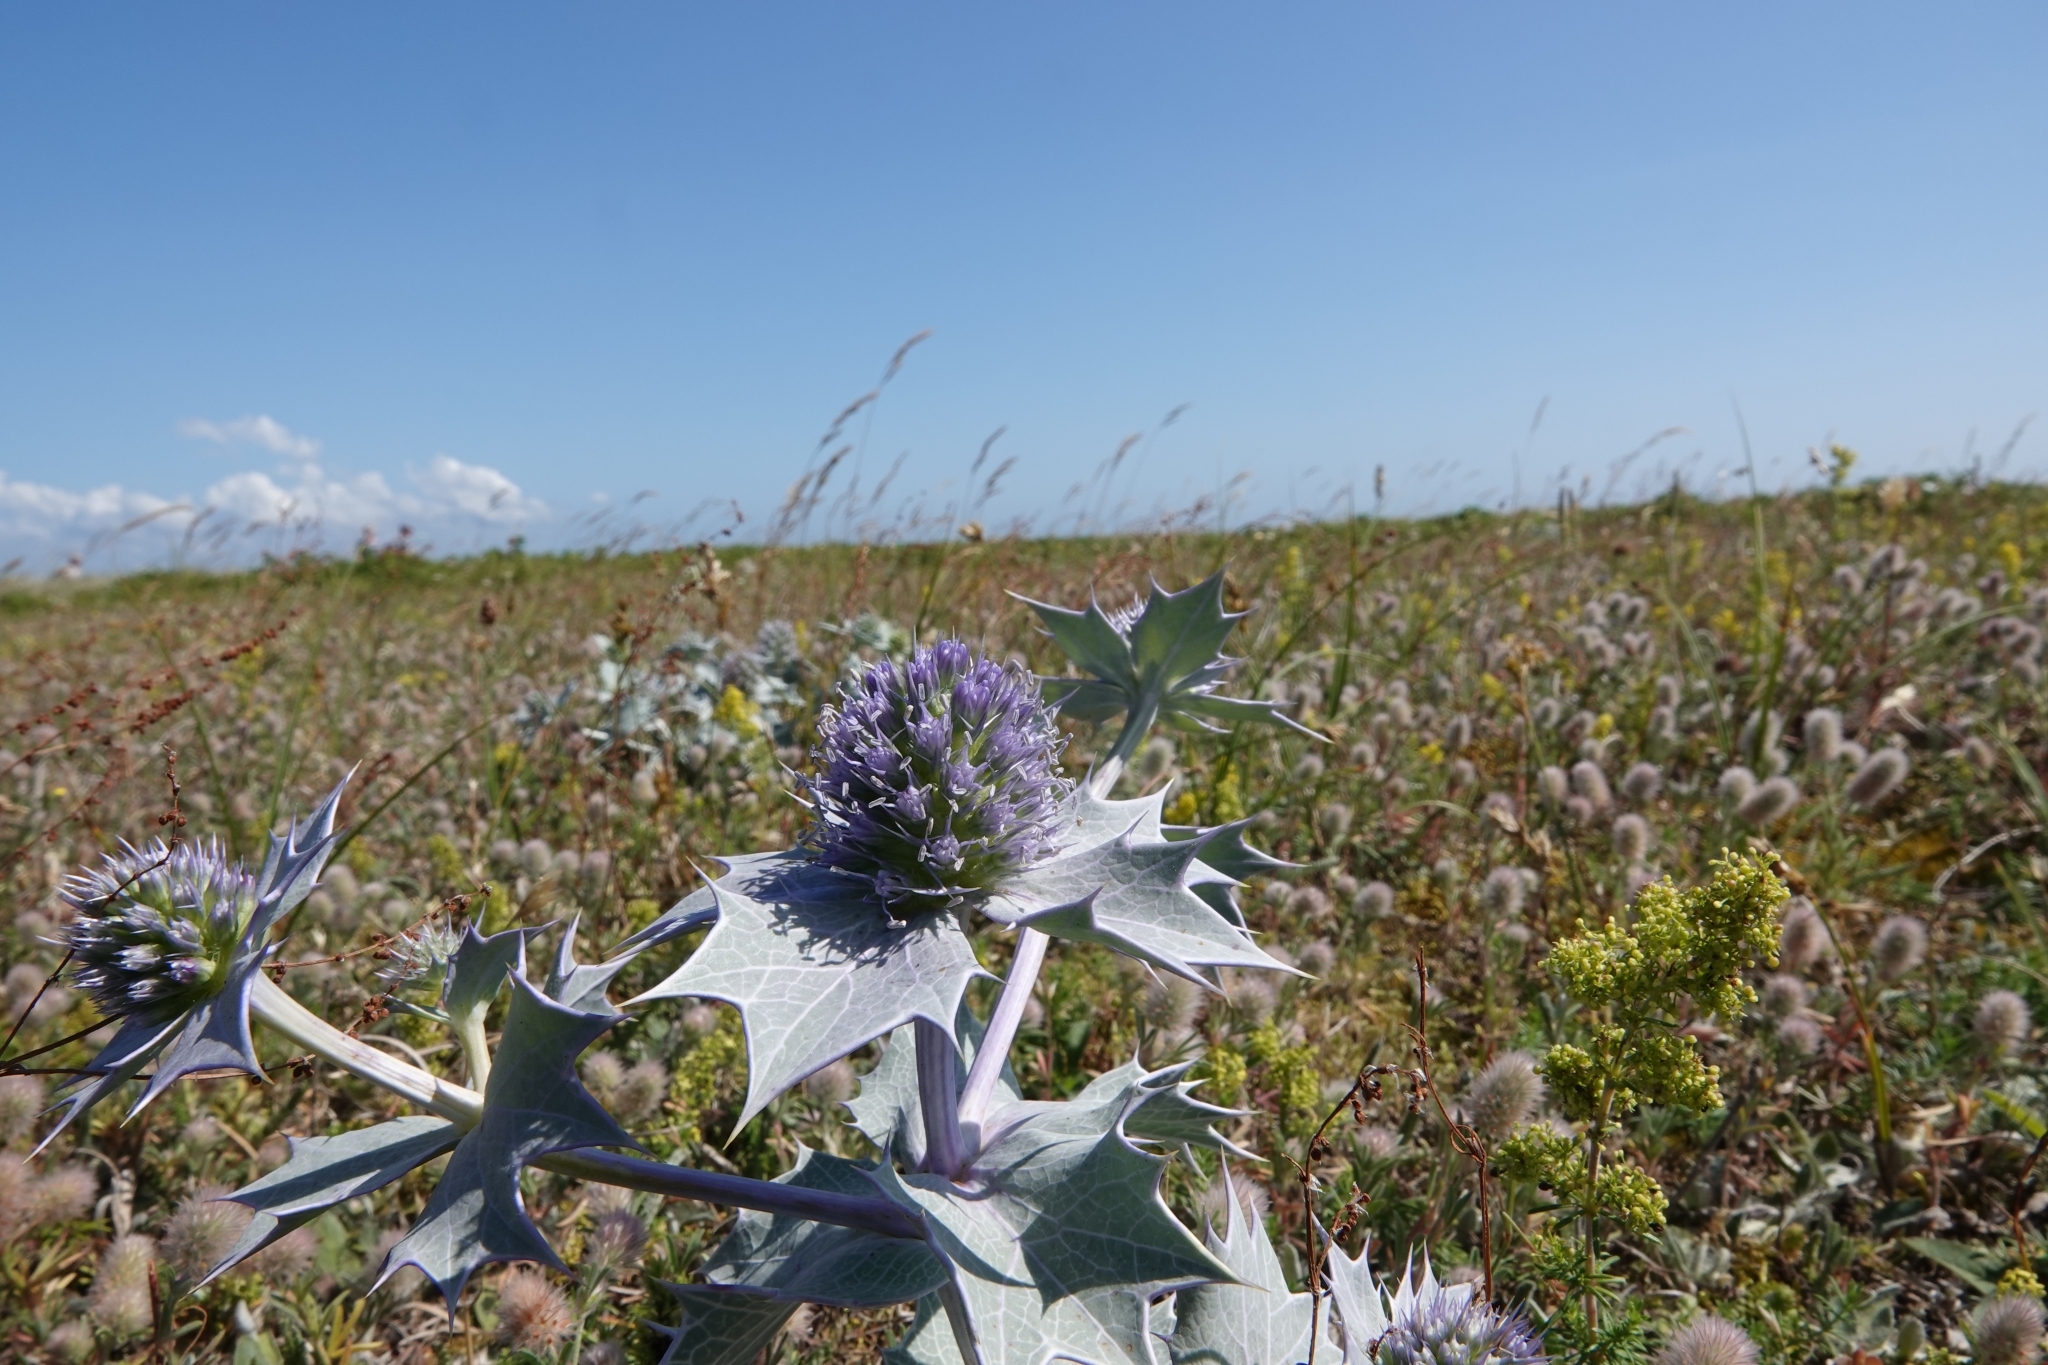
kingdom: Plantae
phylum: Tracheophyta
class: Magnoliopsida
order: Apiales
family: Apiaceae
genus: Eryngium
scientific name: Eryngium maritimum
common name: Sea-holly
